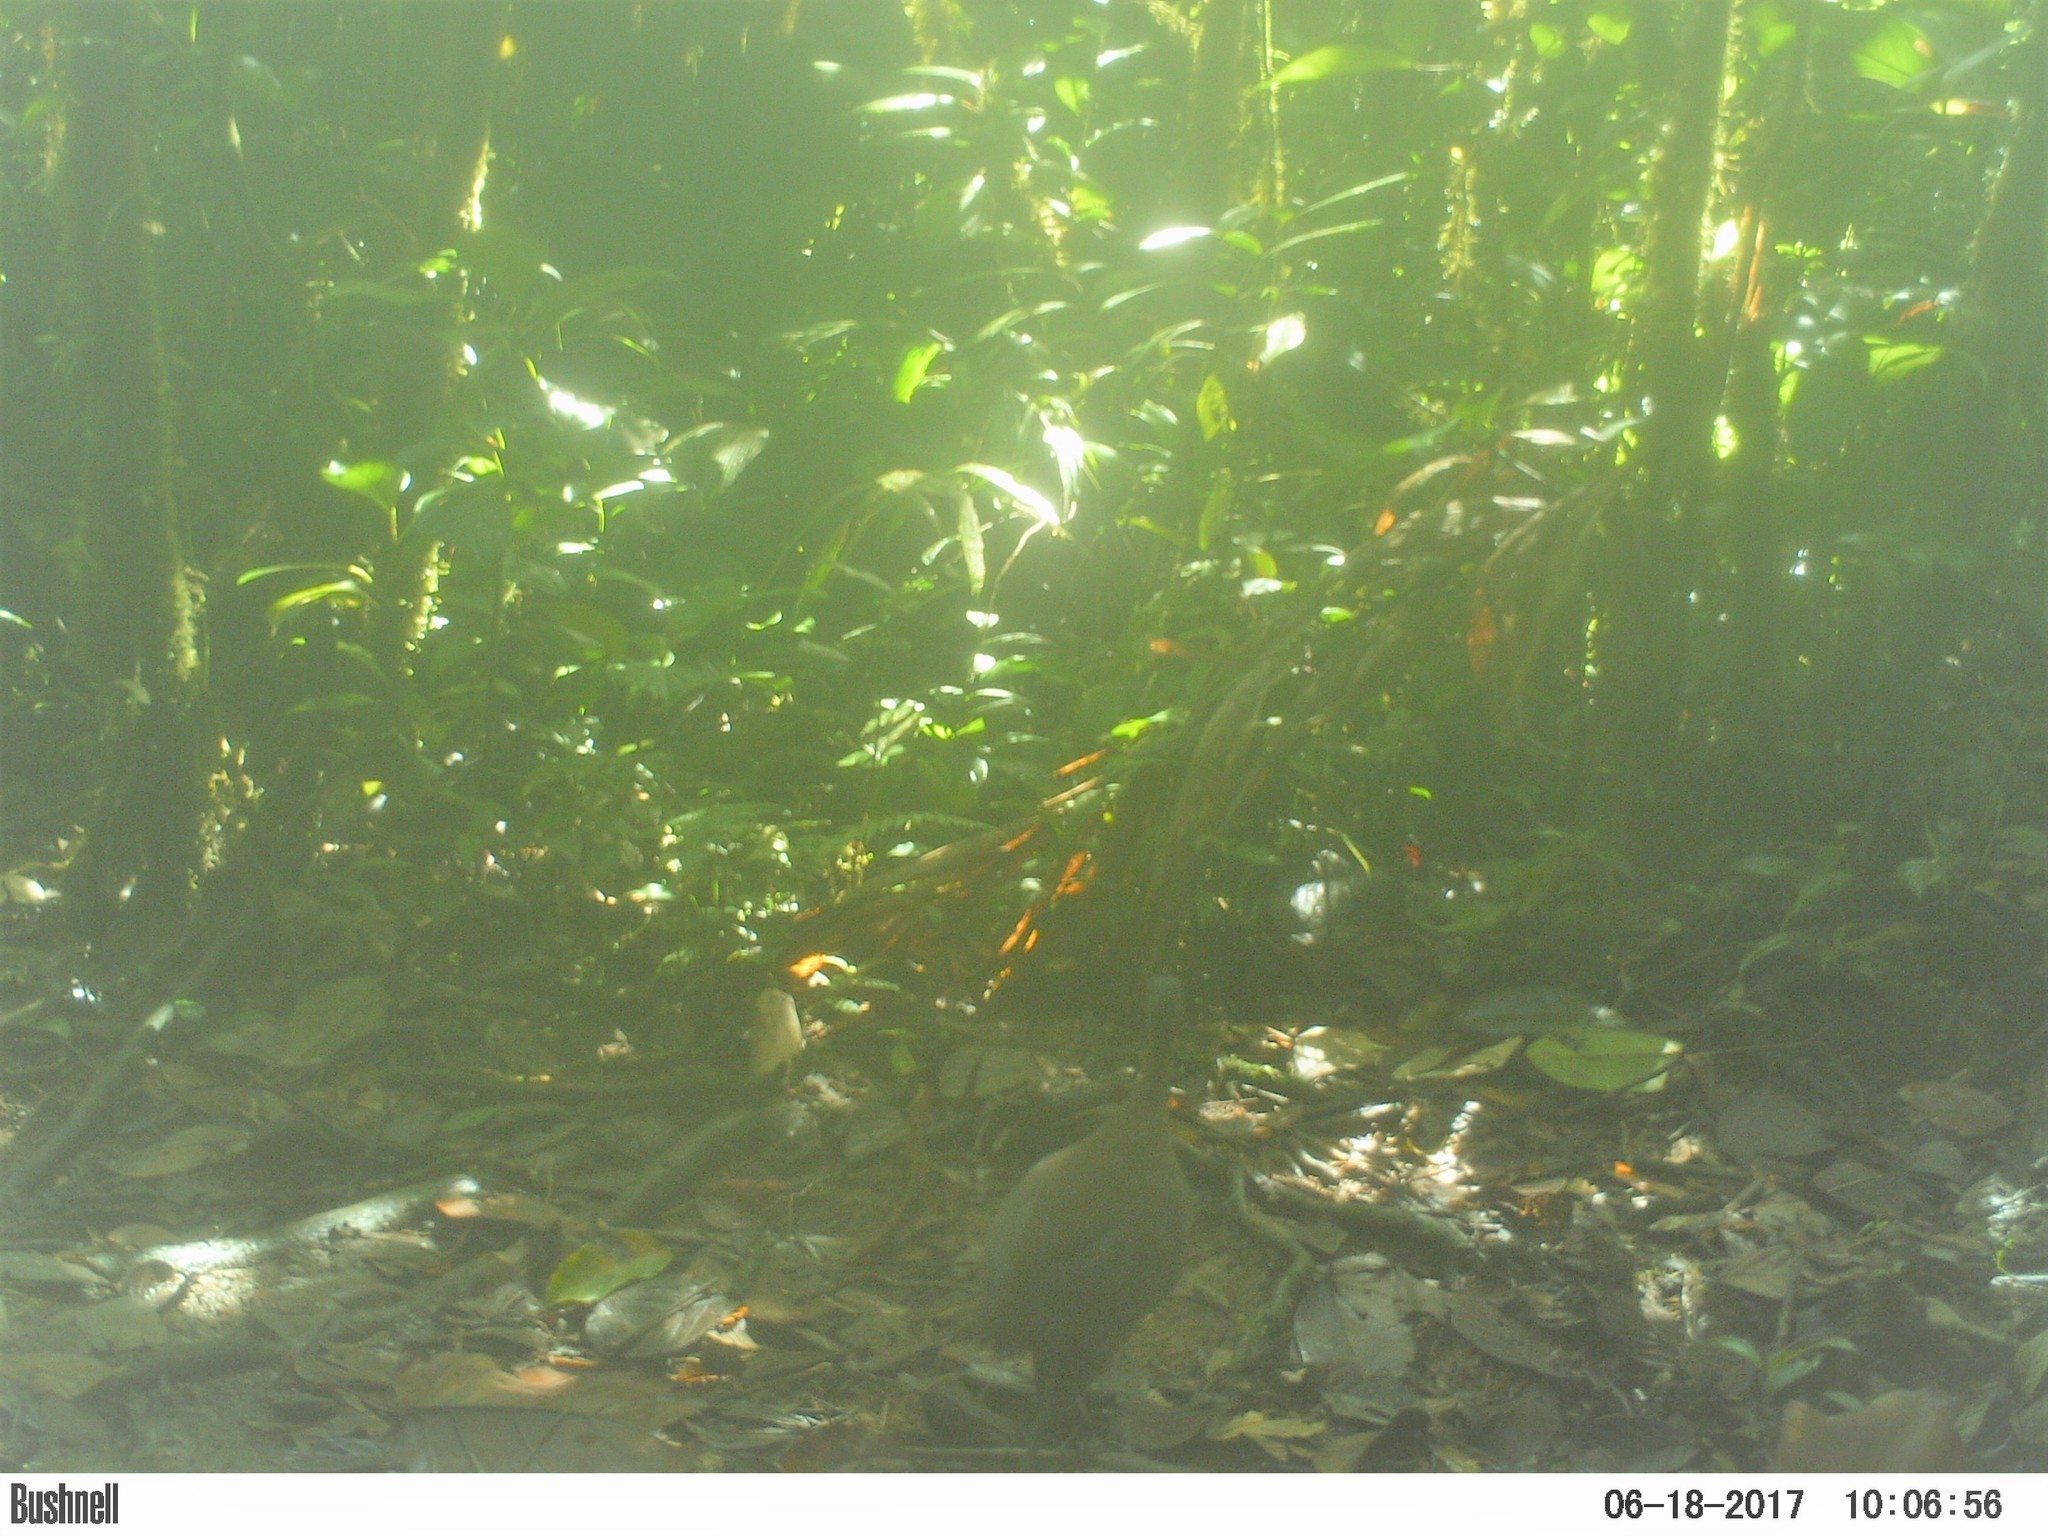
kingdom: Animalia
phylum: Chordata
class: Aves
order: Tinamiformes
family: Tinamidae
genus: Tinamus
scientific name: Tinamus major
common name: Great tinamou
